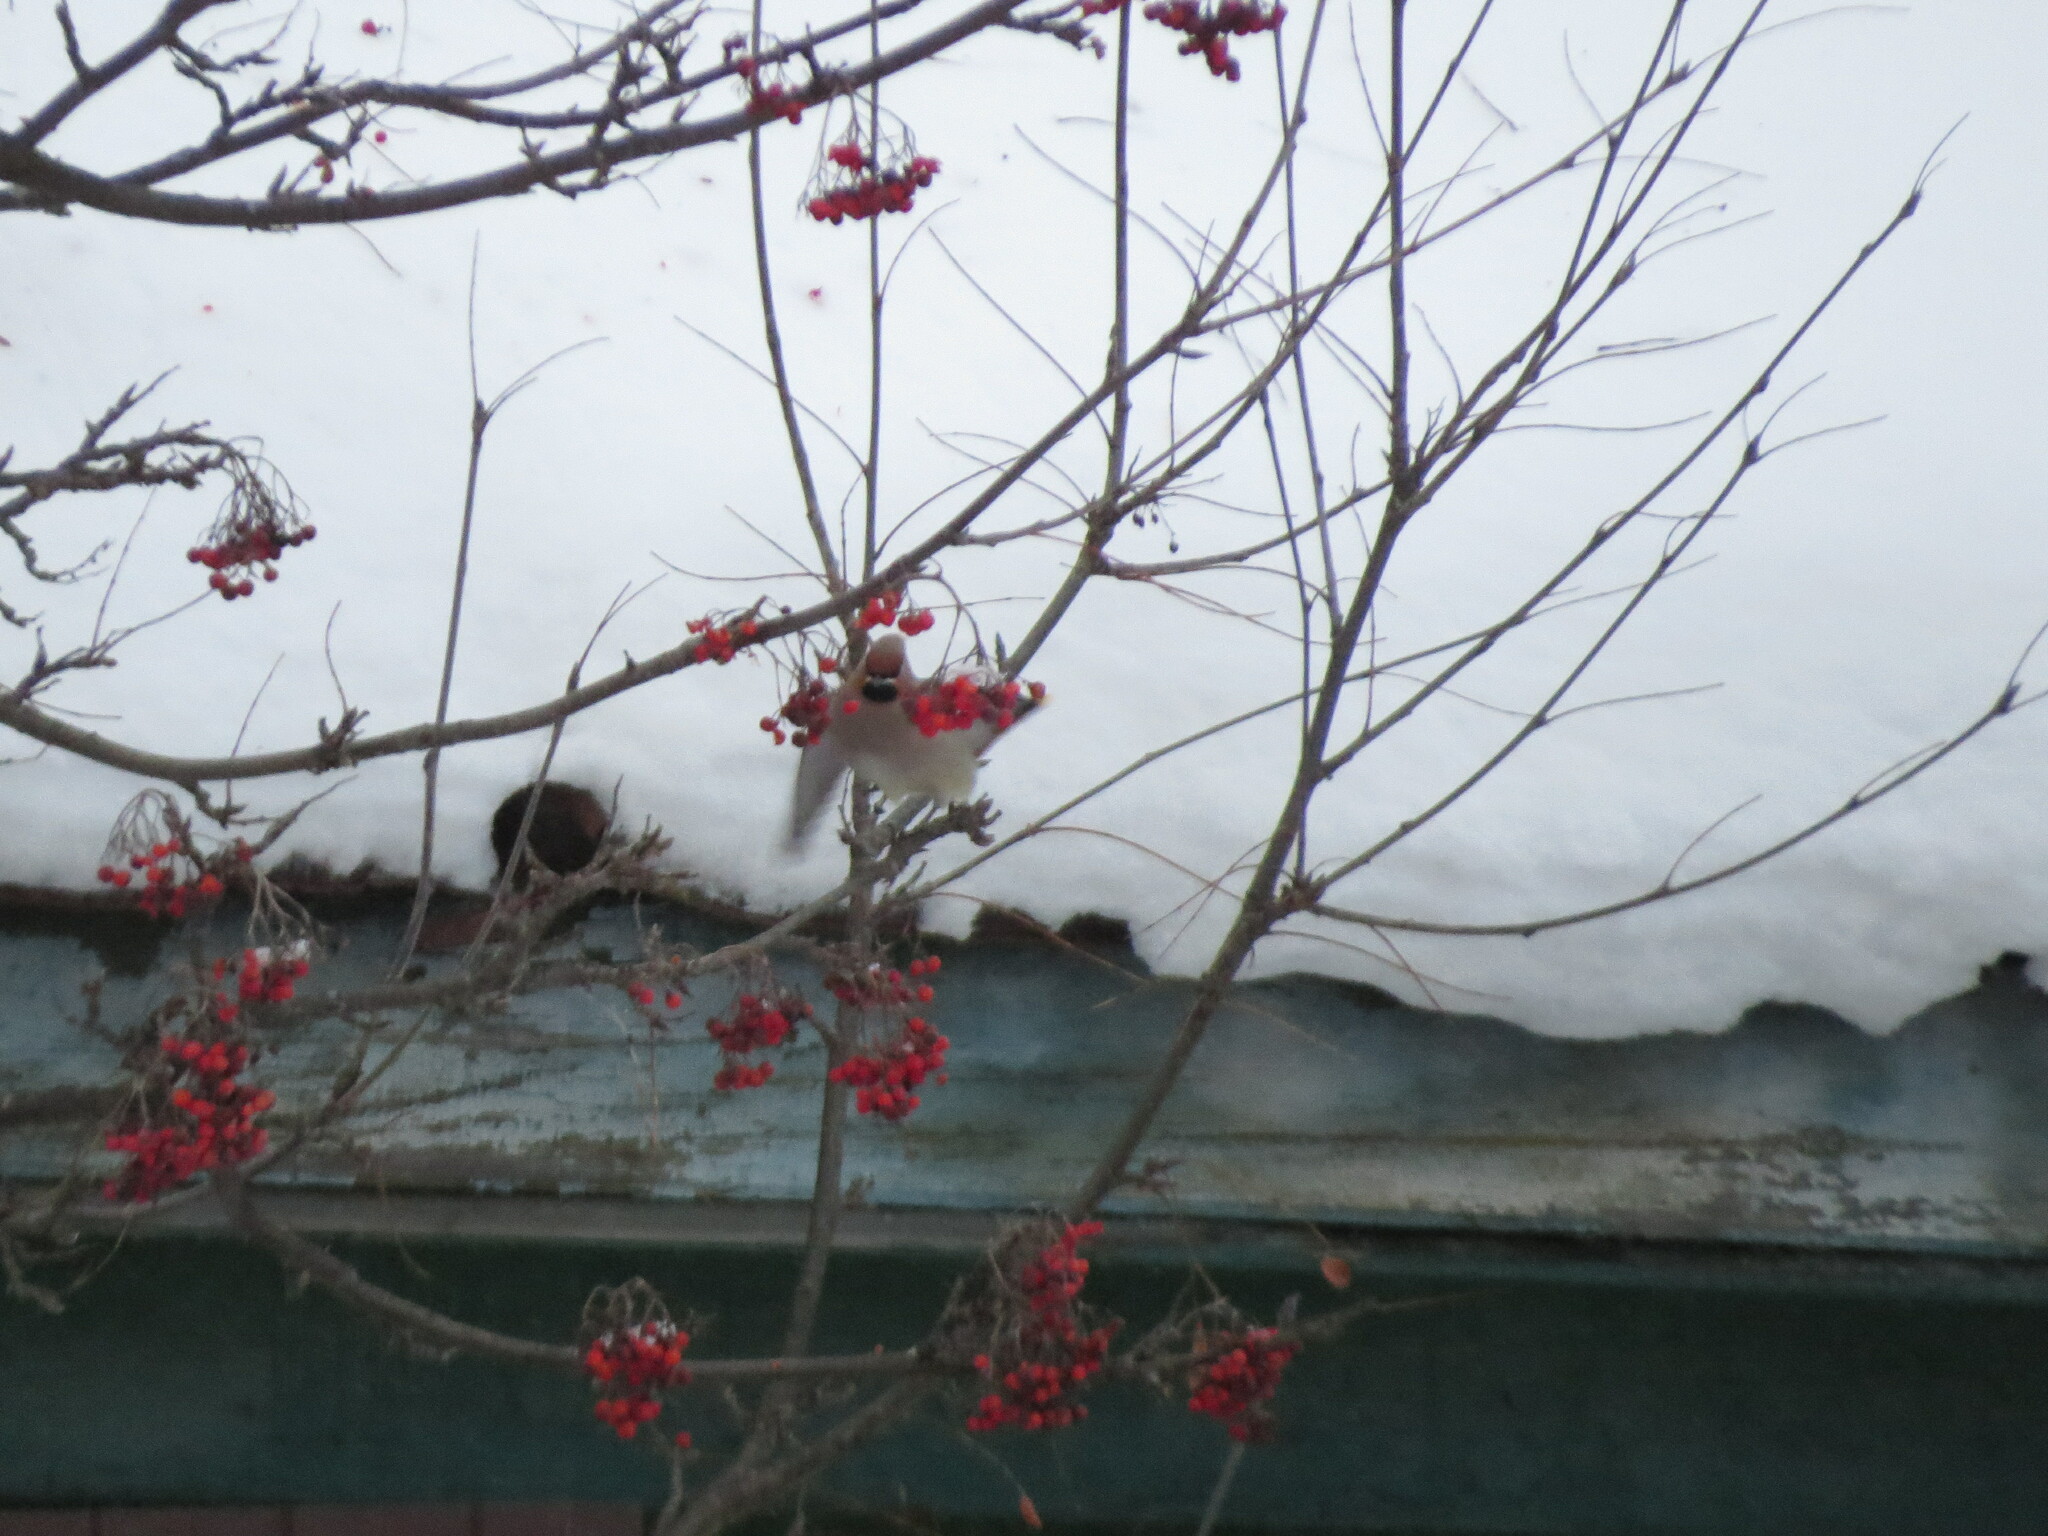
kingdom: Animalia
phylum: Chordata
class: Aves
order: Passeriformes
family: Bombycillidae
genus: Bombycilla
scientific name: Bombycilla garrulus
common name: Bohemian waxwing
